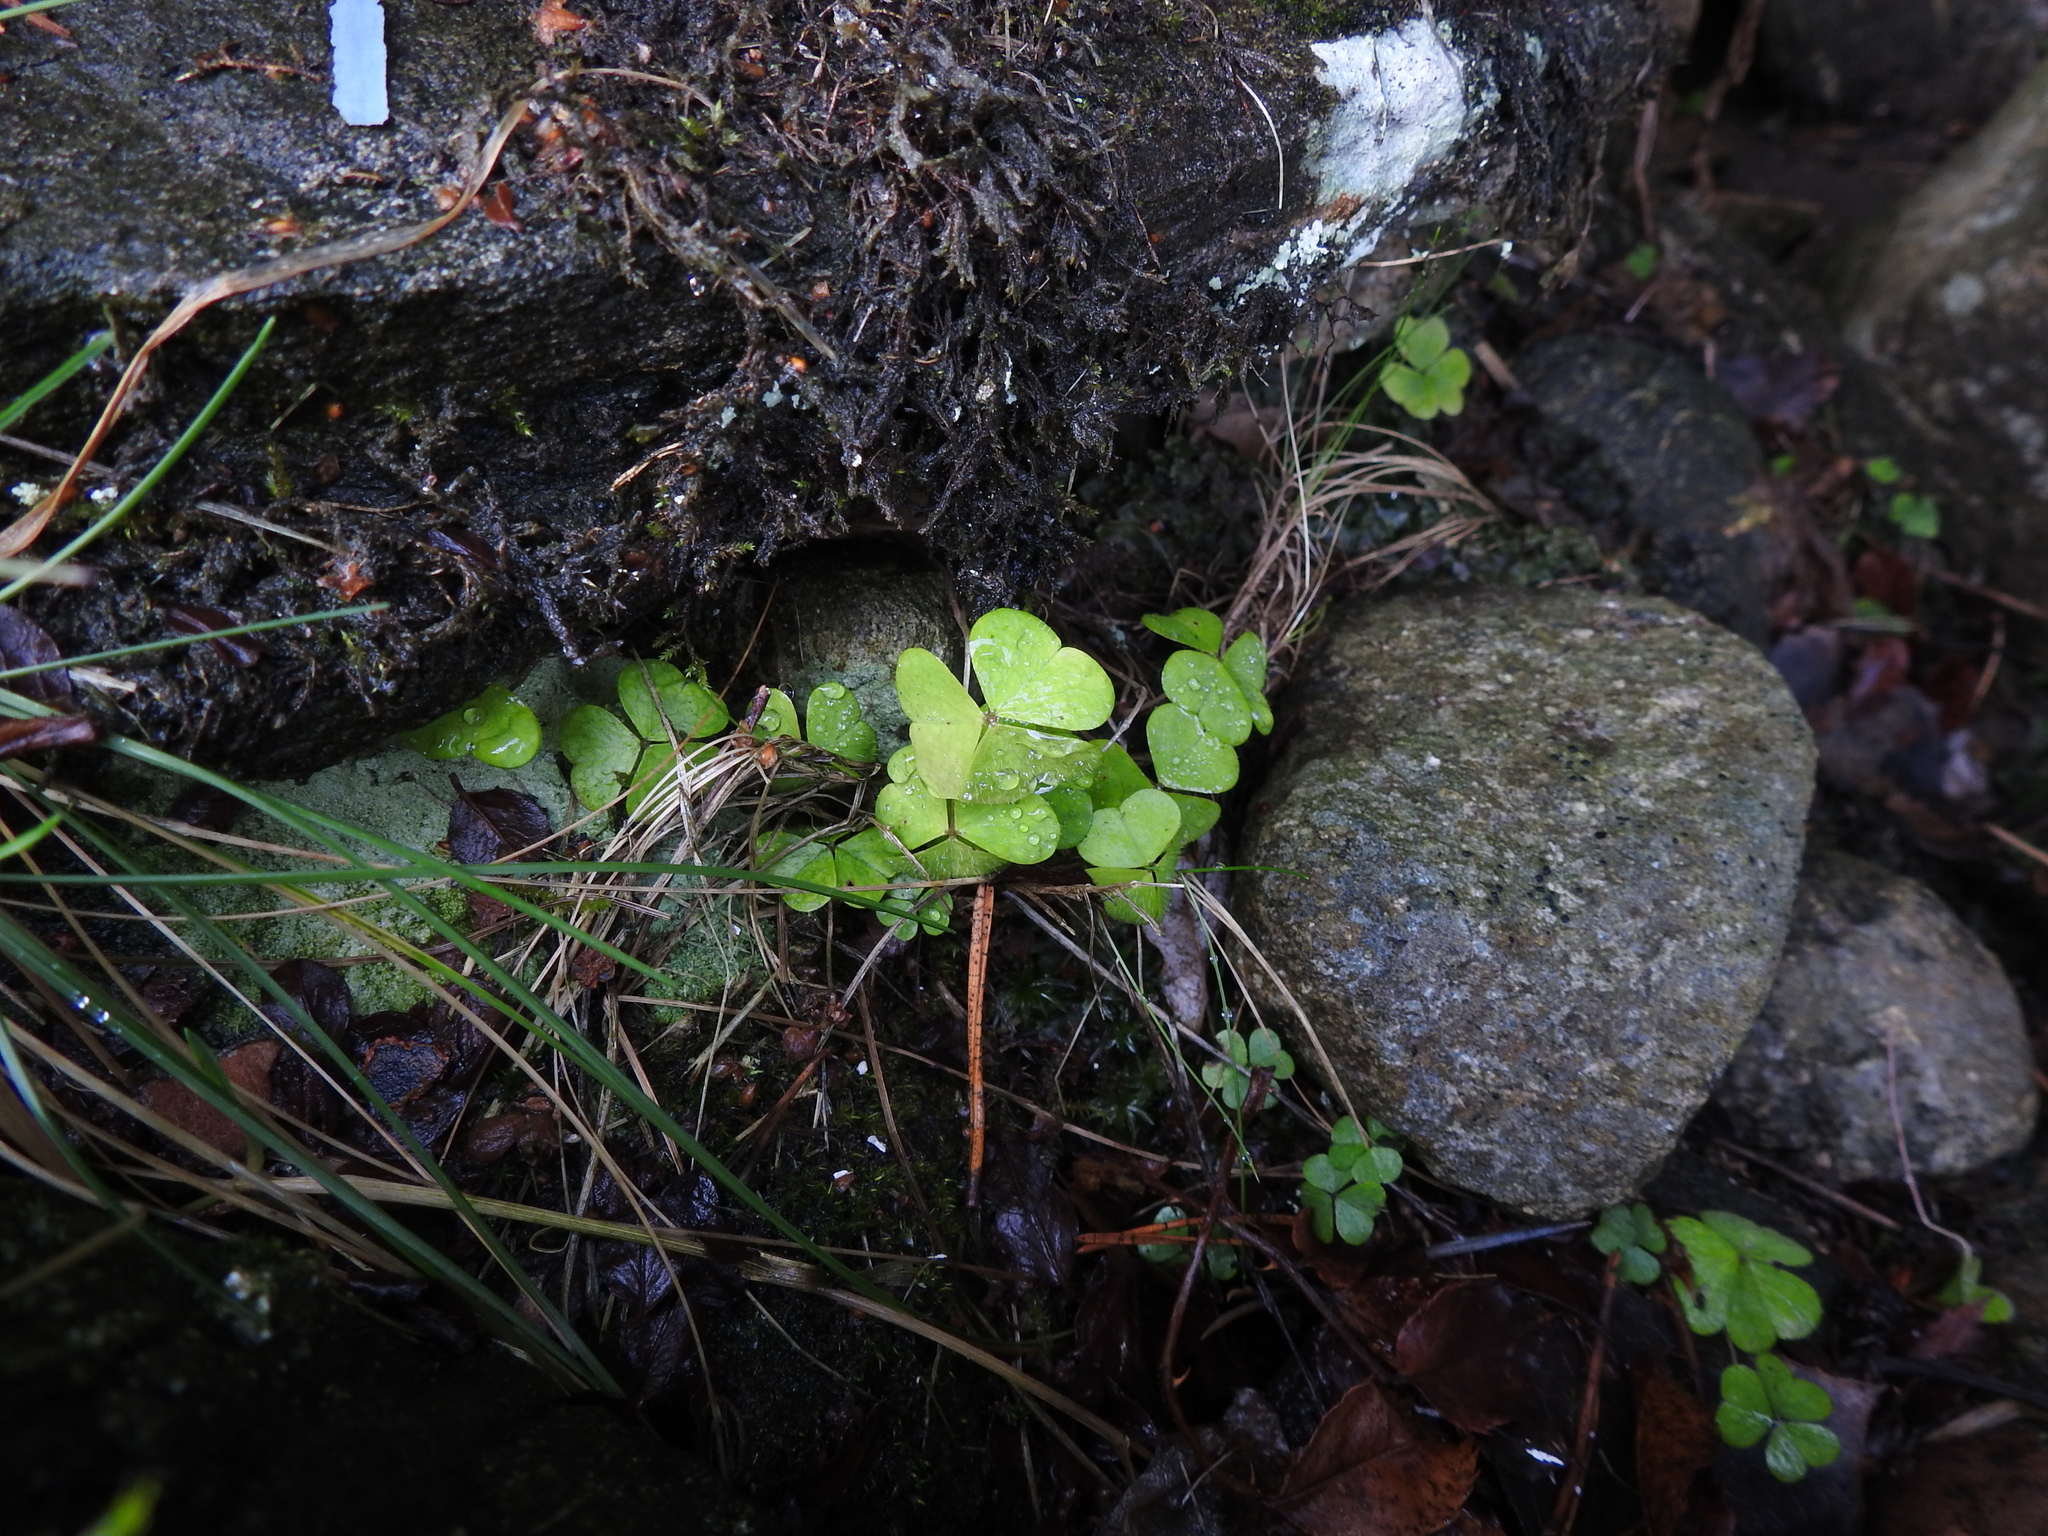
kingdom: Plantae
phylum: Tracheophyta
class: Magnoliopsida
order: Oxalidales
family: Oxalidaceae
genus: Oxalis
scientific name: Oxalis acetosella
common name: Wood-sorrel
